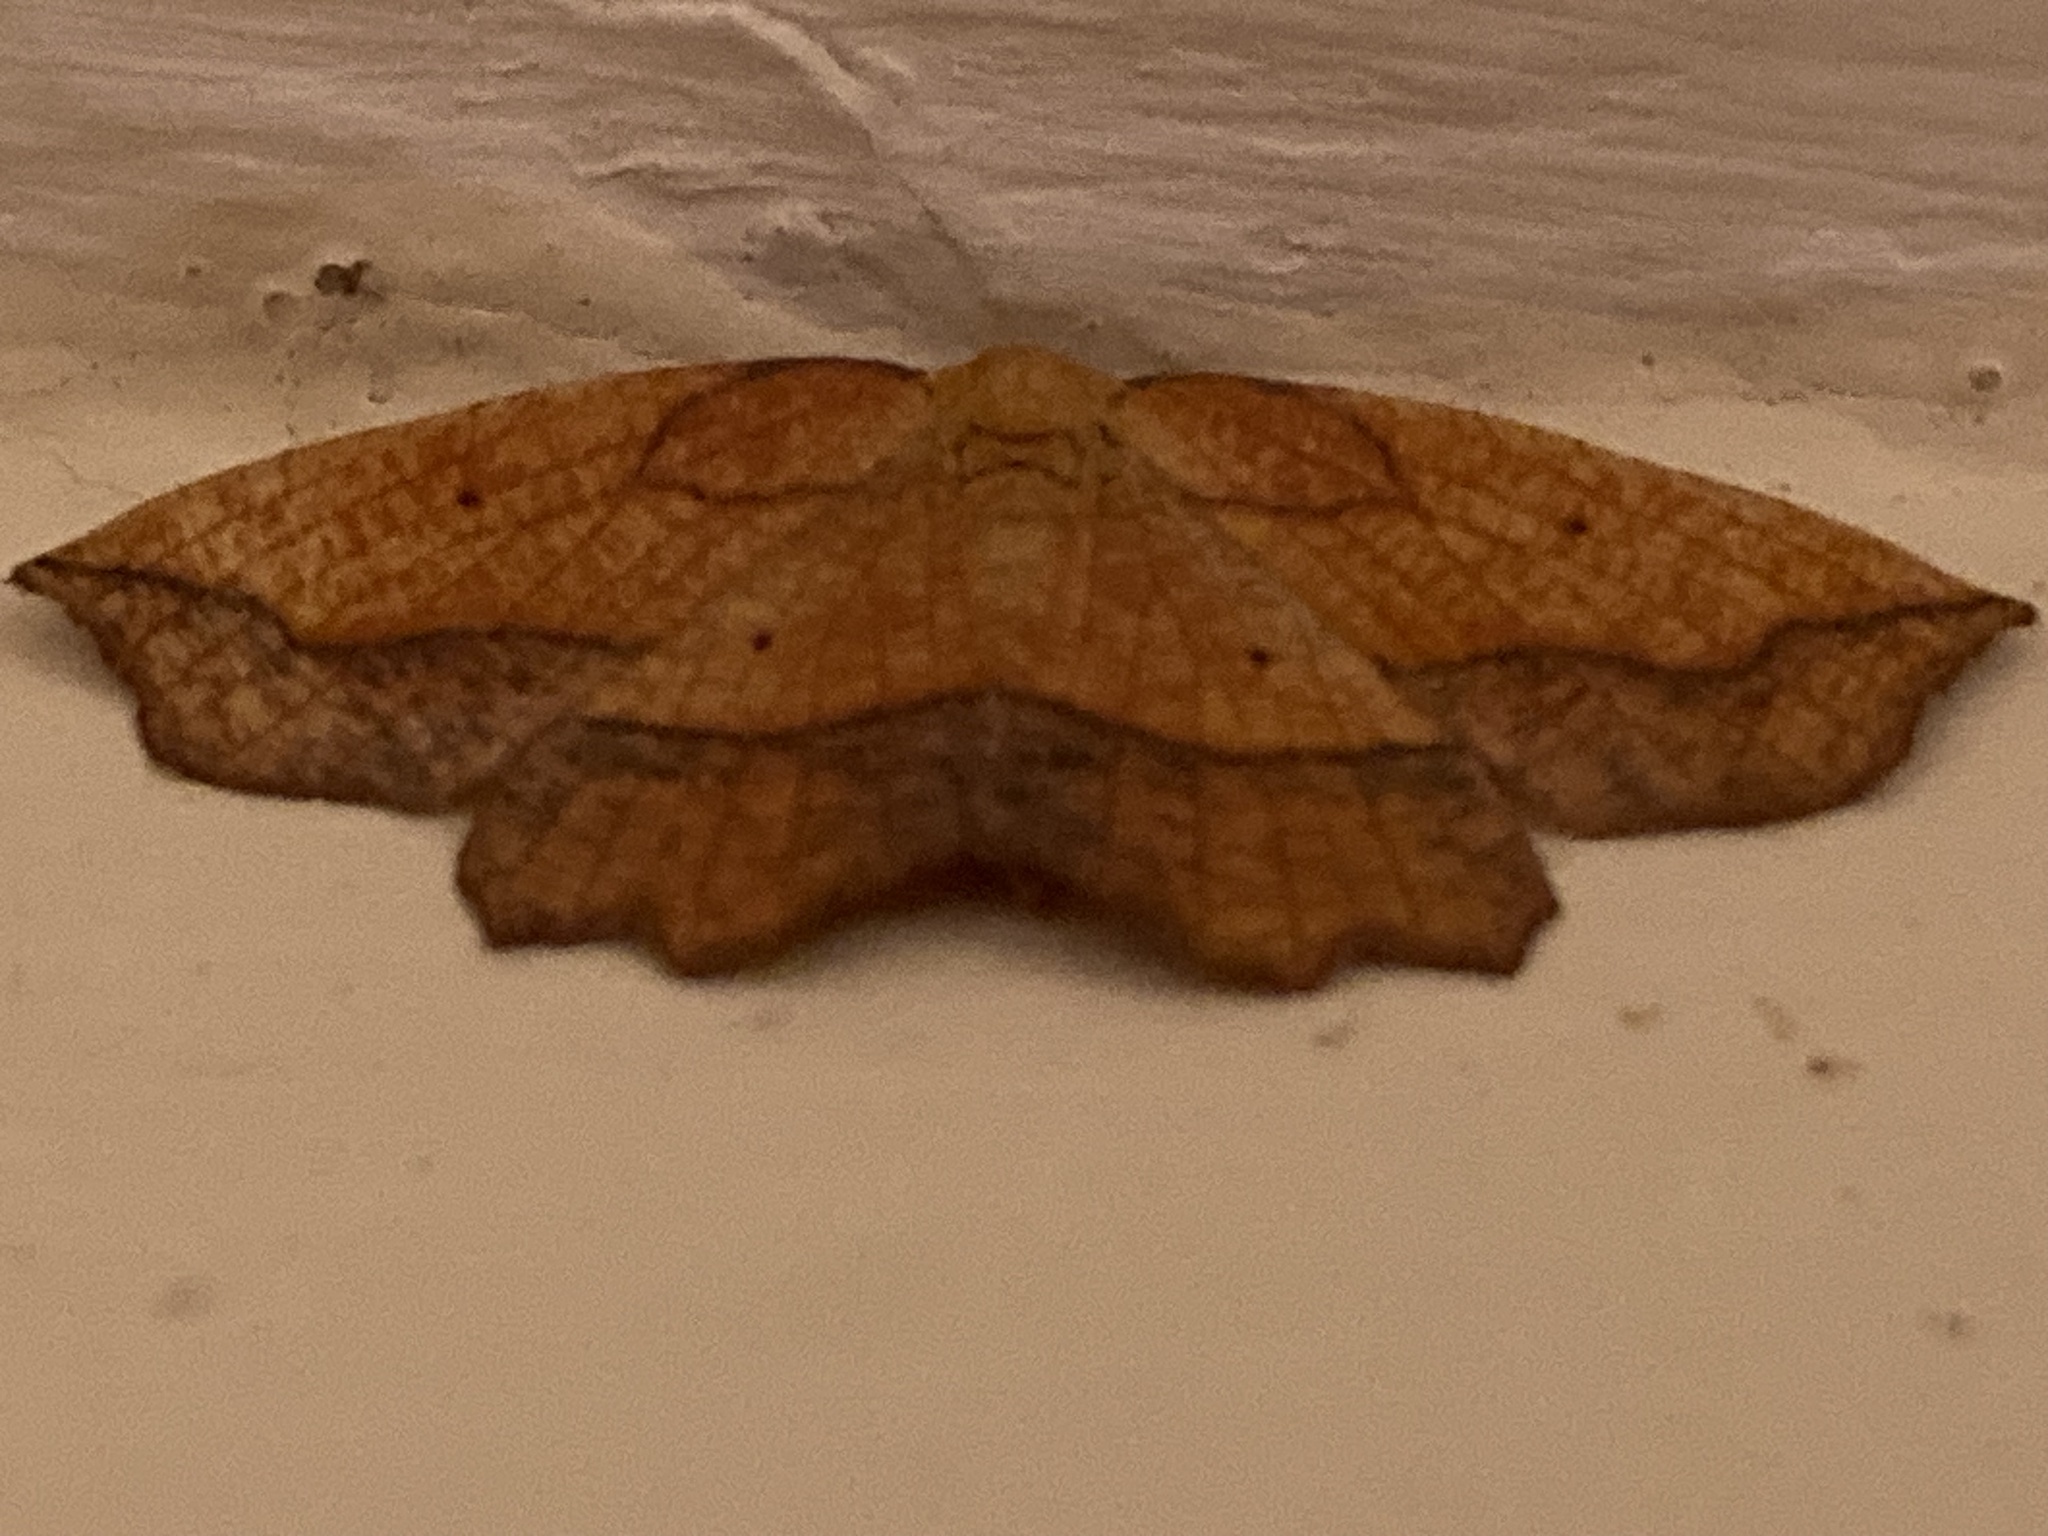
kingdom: Animalia
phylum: Arthropoda
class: Insecta
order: Lepidoptera
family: Geometridae
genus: Epione
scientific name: Epione repandaria
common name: Bordered beauty
